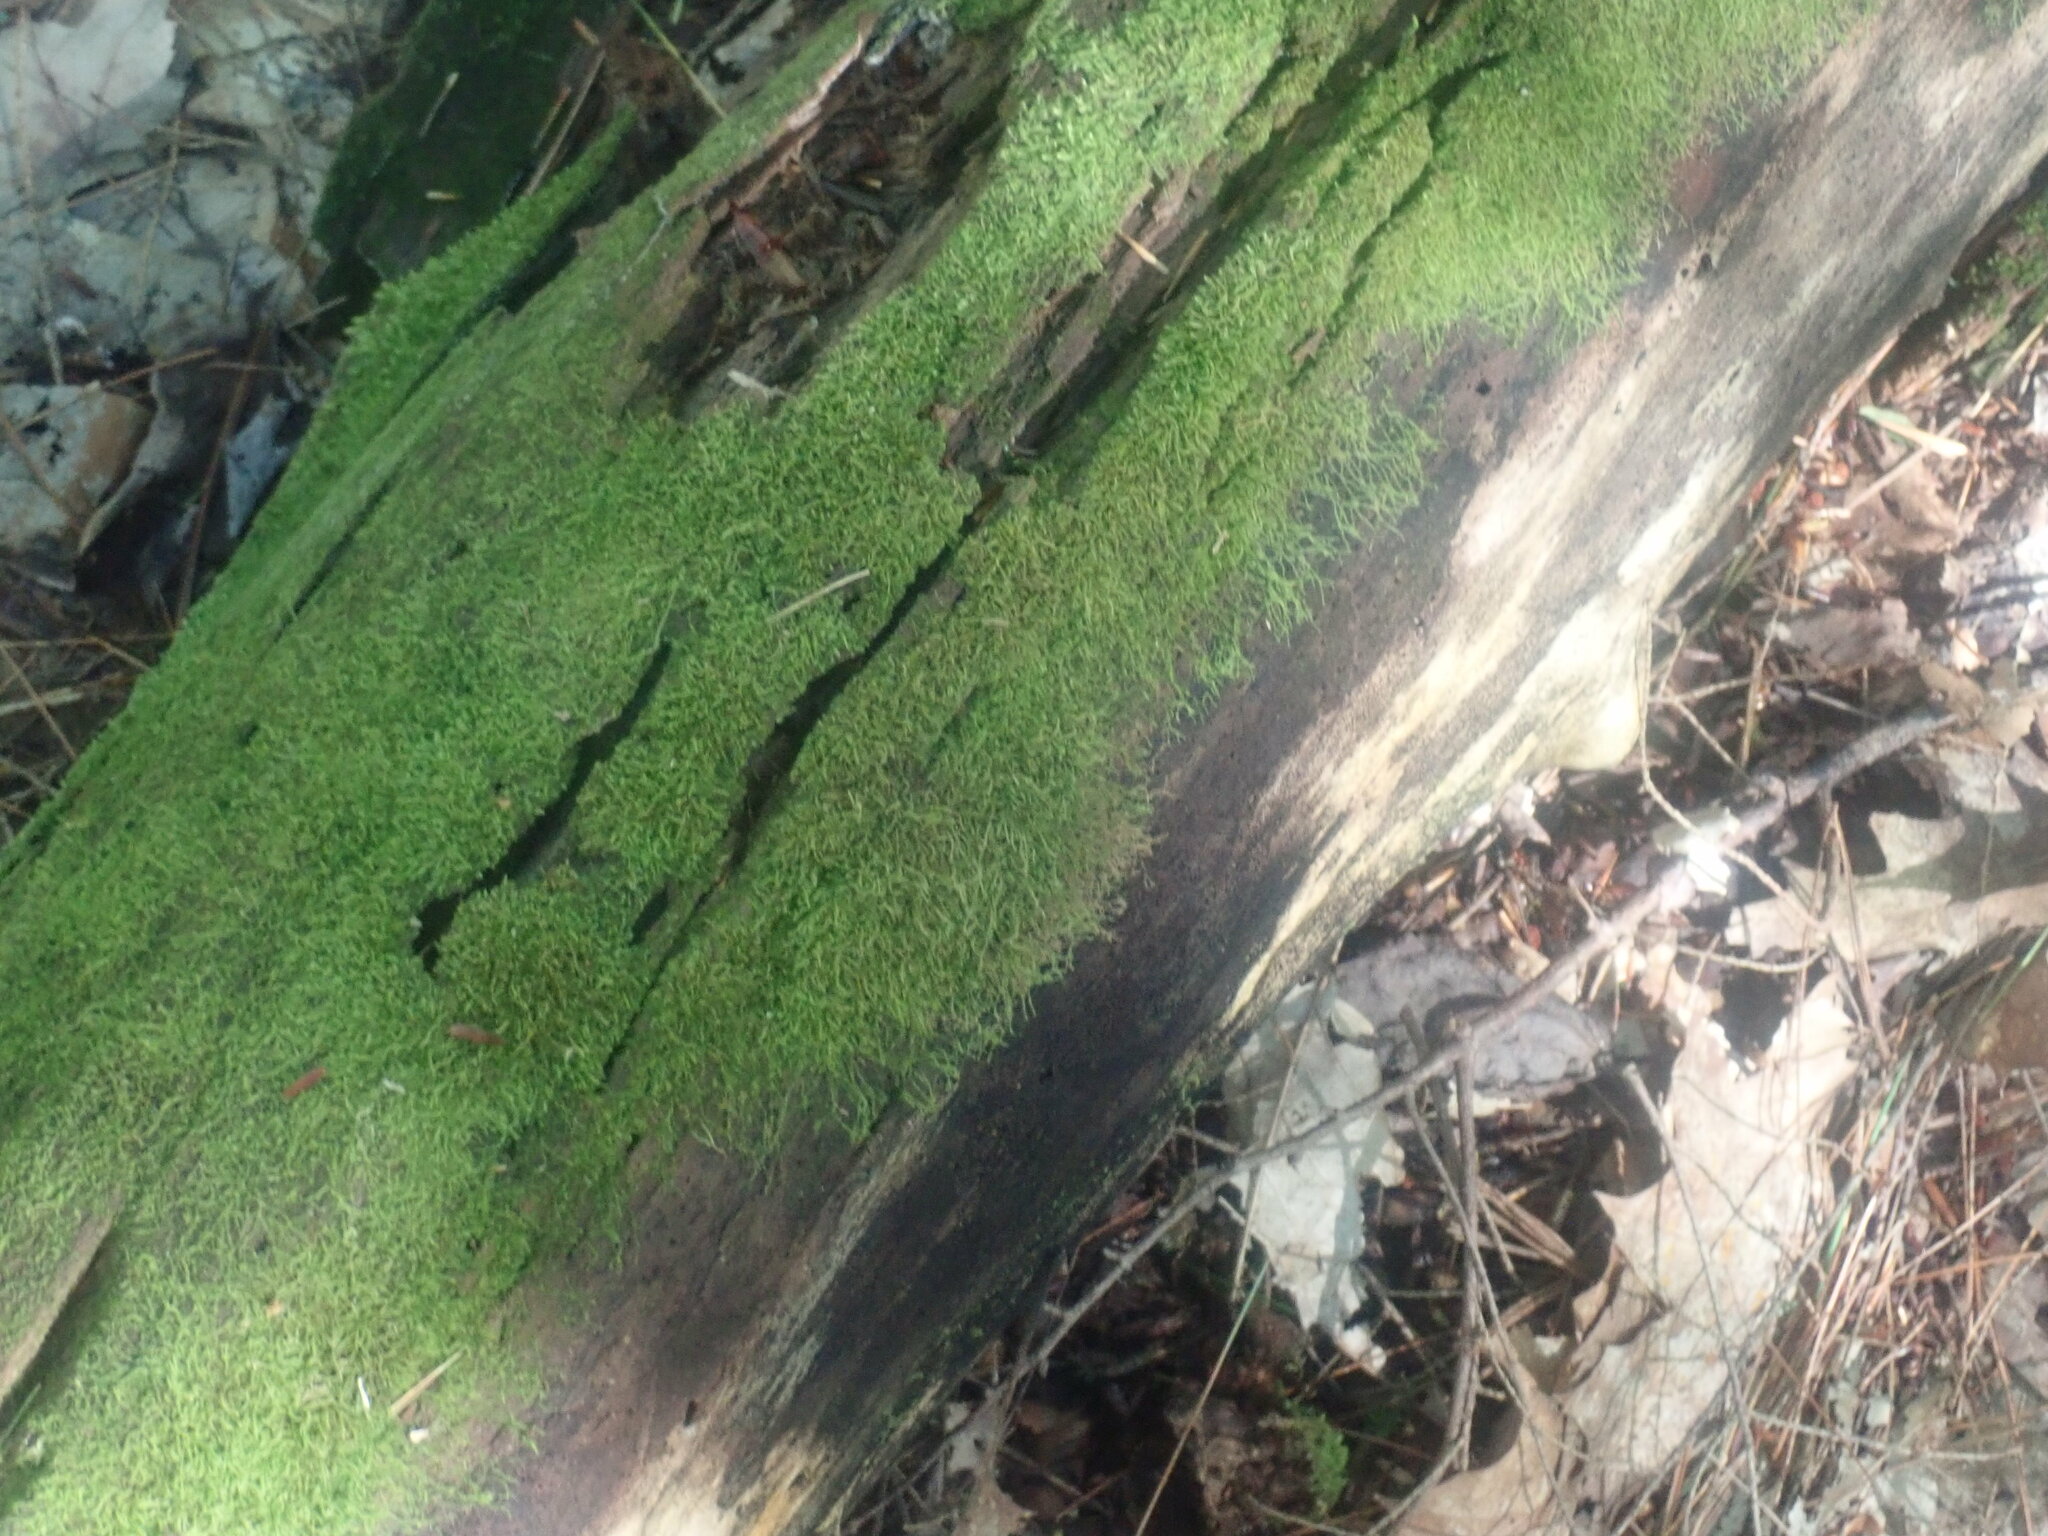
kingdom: Plantae
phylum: Marchantiophyta
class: Jungermanniopsida
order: Jungermanniales
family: Cephaloziaceae
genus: Nowellia
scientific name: Nowellia curvifolia
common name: Wood rustwort
